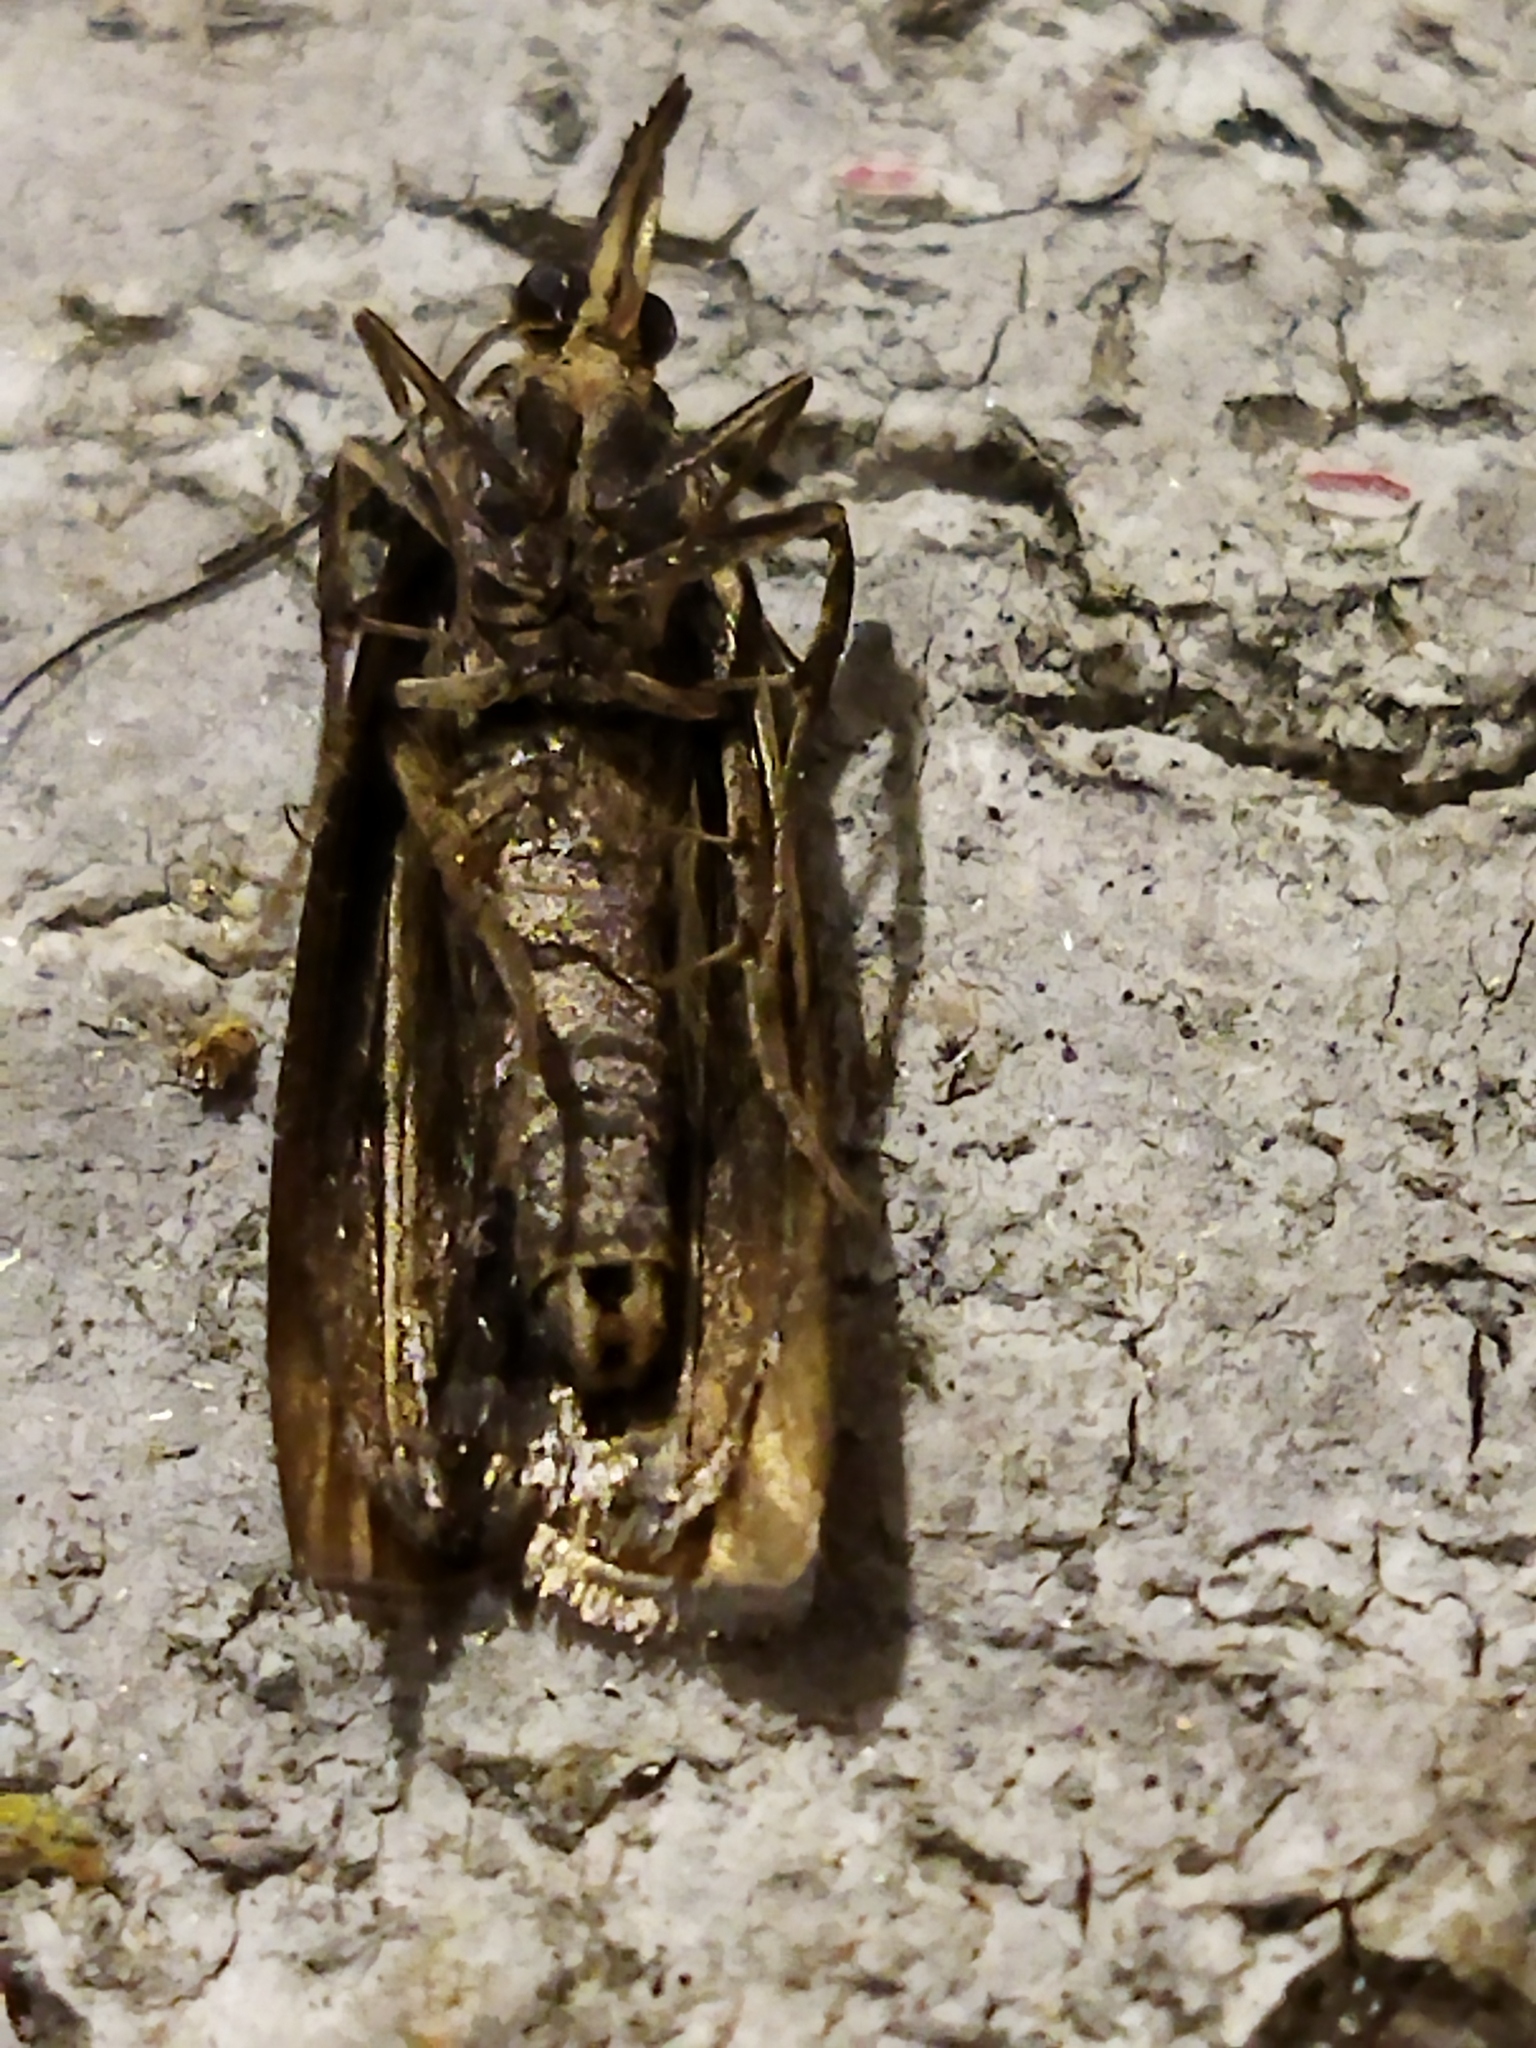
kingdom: Animalia
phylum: Arthropoda
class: Insecta
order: Lepidoptera
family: Pyralidae
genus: Hypochalcia
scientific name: Hypochalcia dignella
